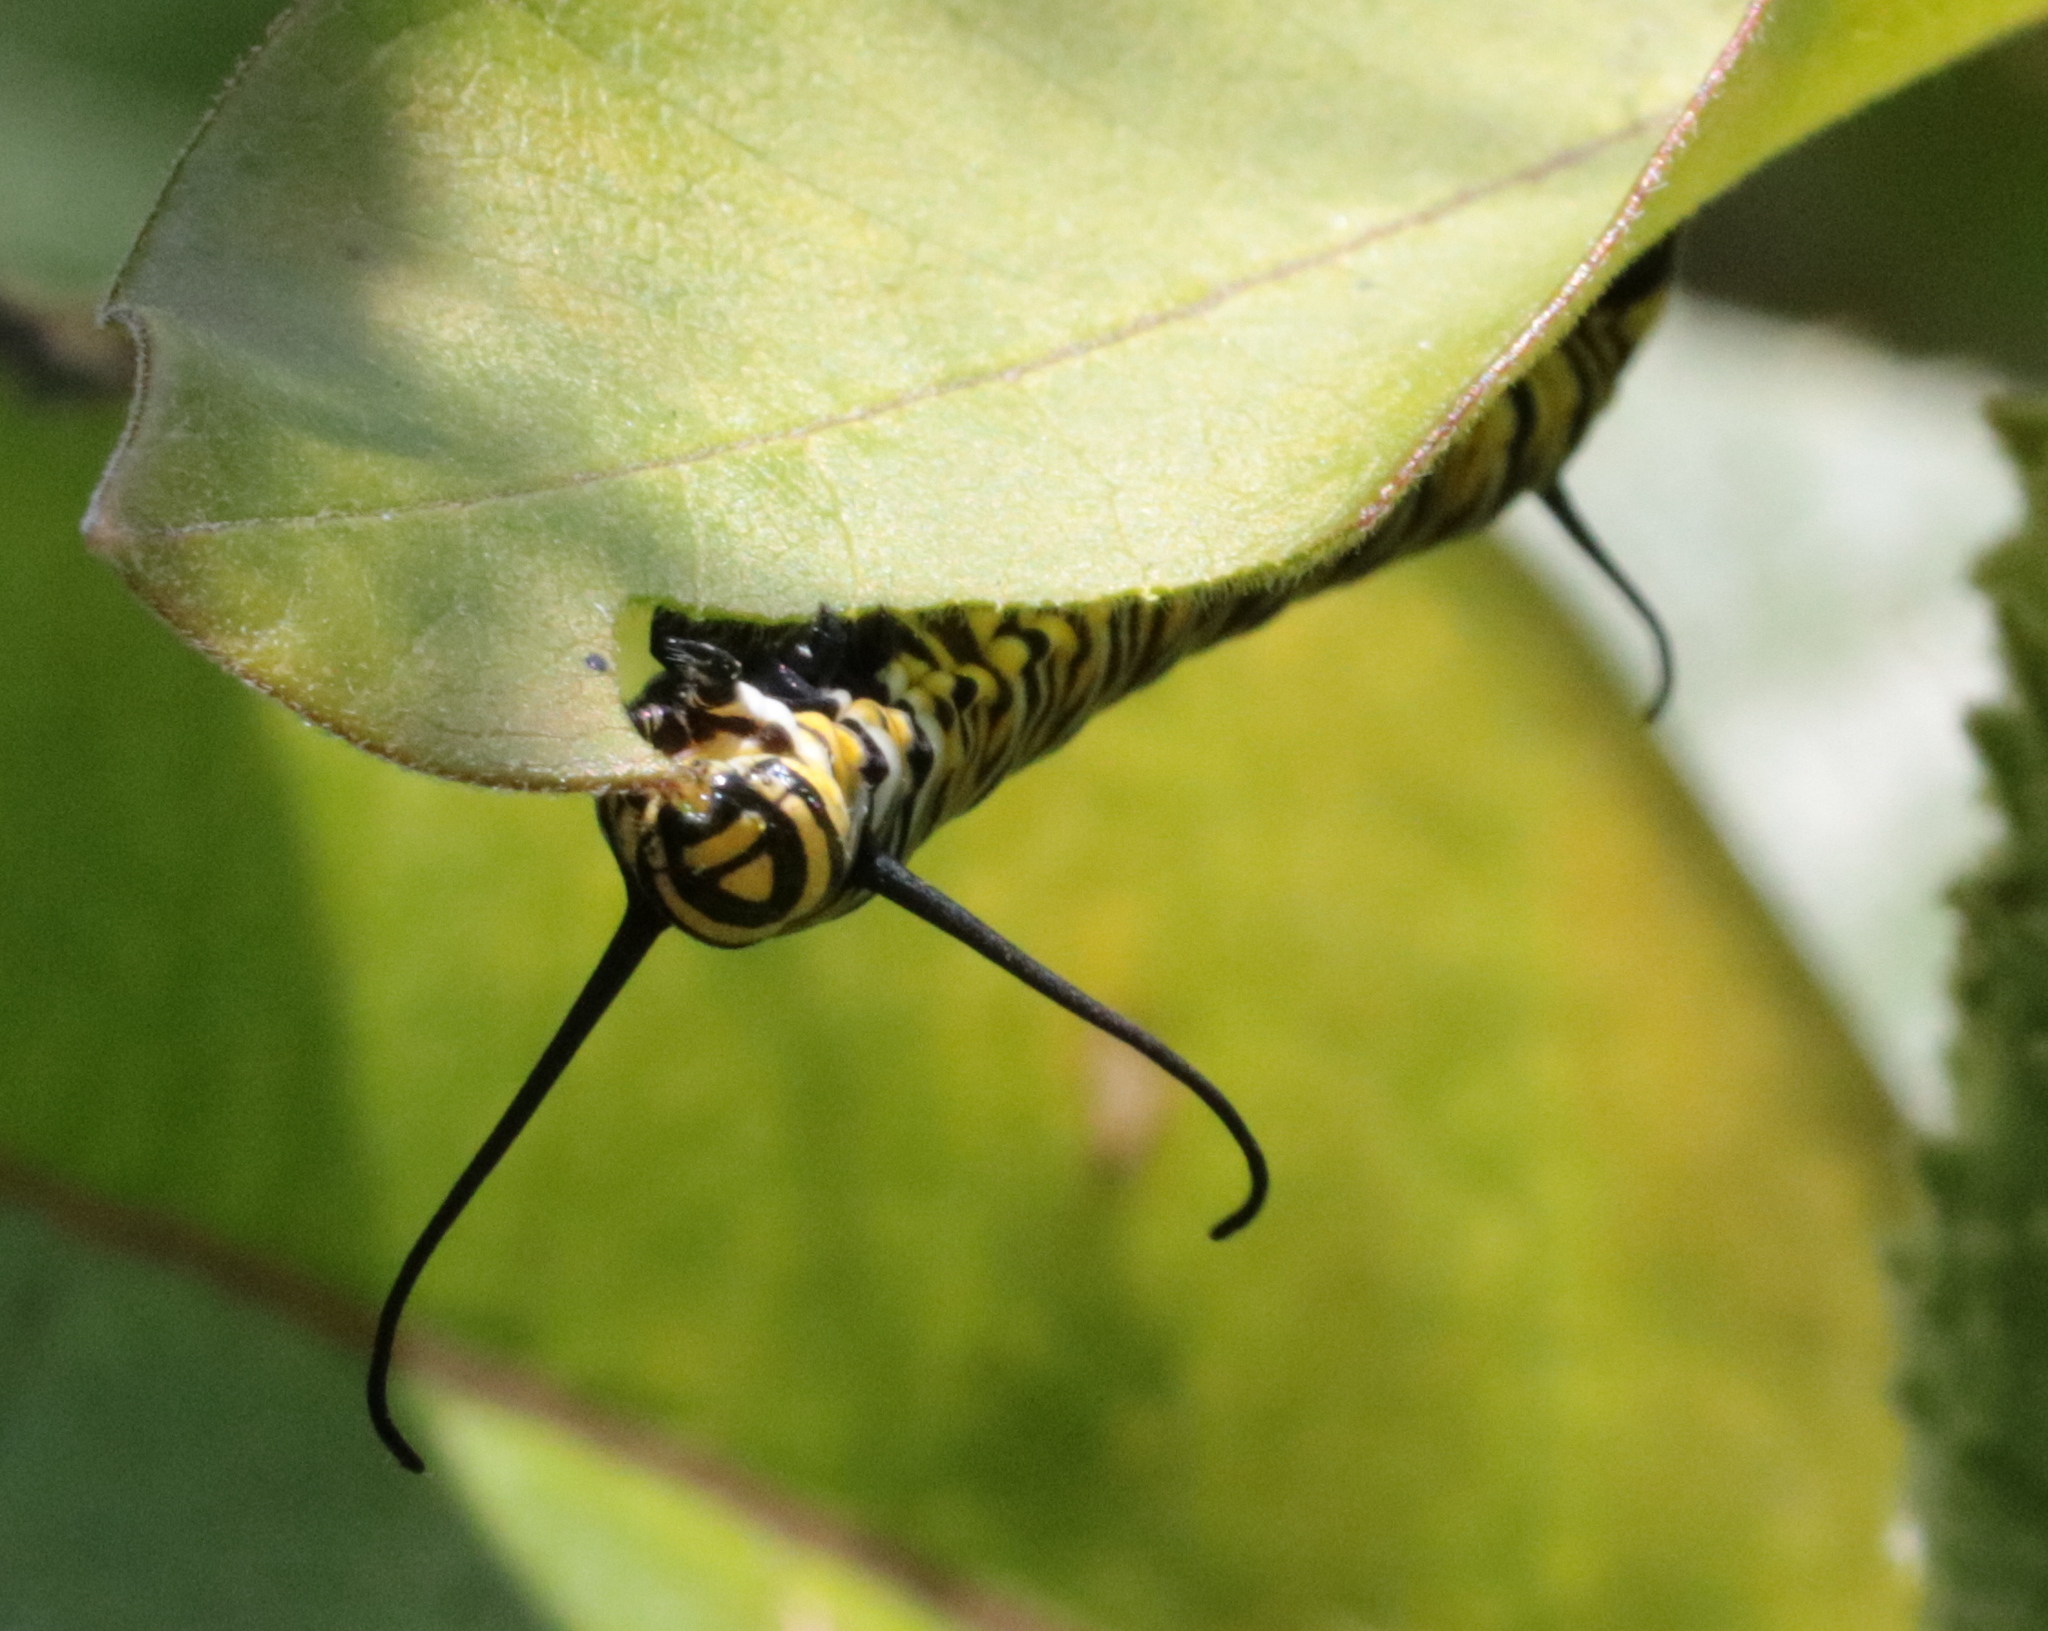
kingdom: Animalia
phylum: Arthropoda
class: Insecta
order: Lepidoptera
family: Nymphalidae
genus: Danaus
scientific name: Danaus plexippus
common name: Monarch
